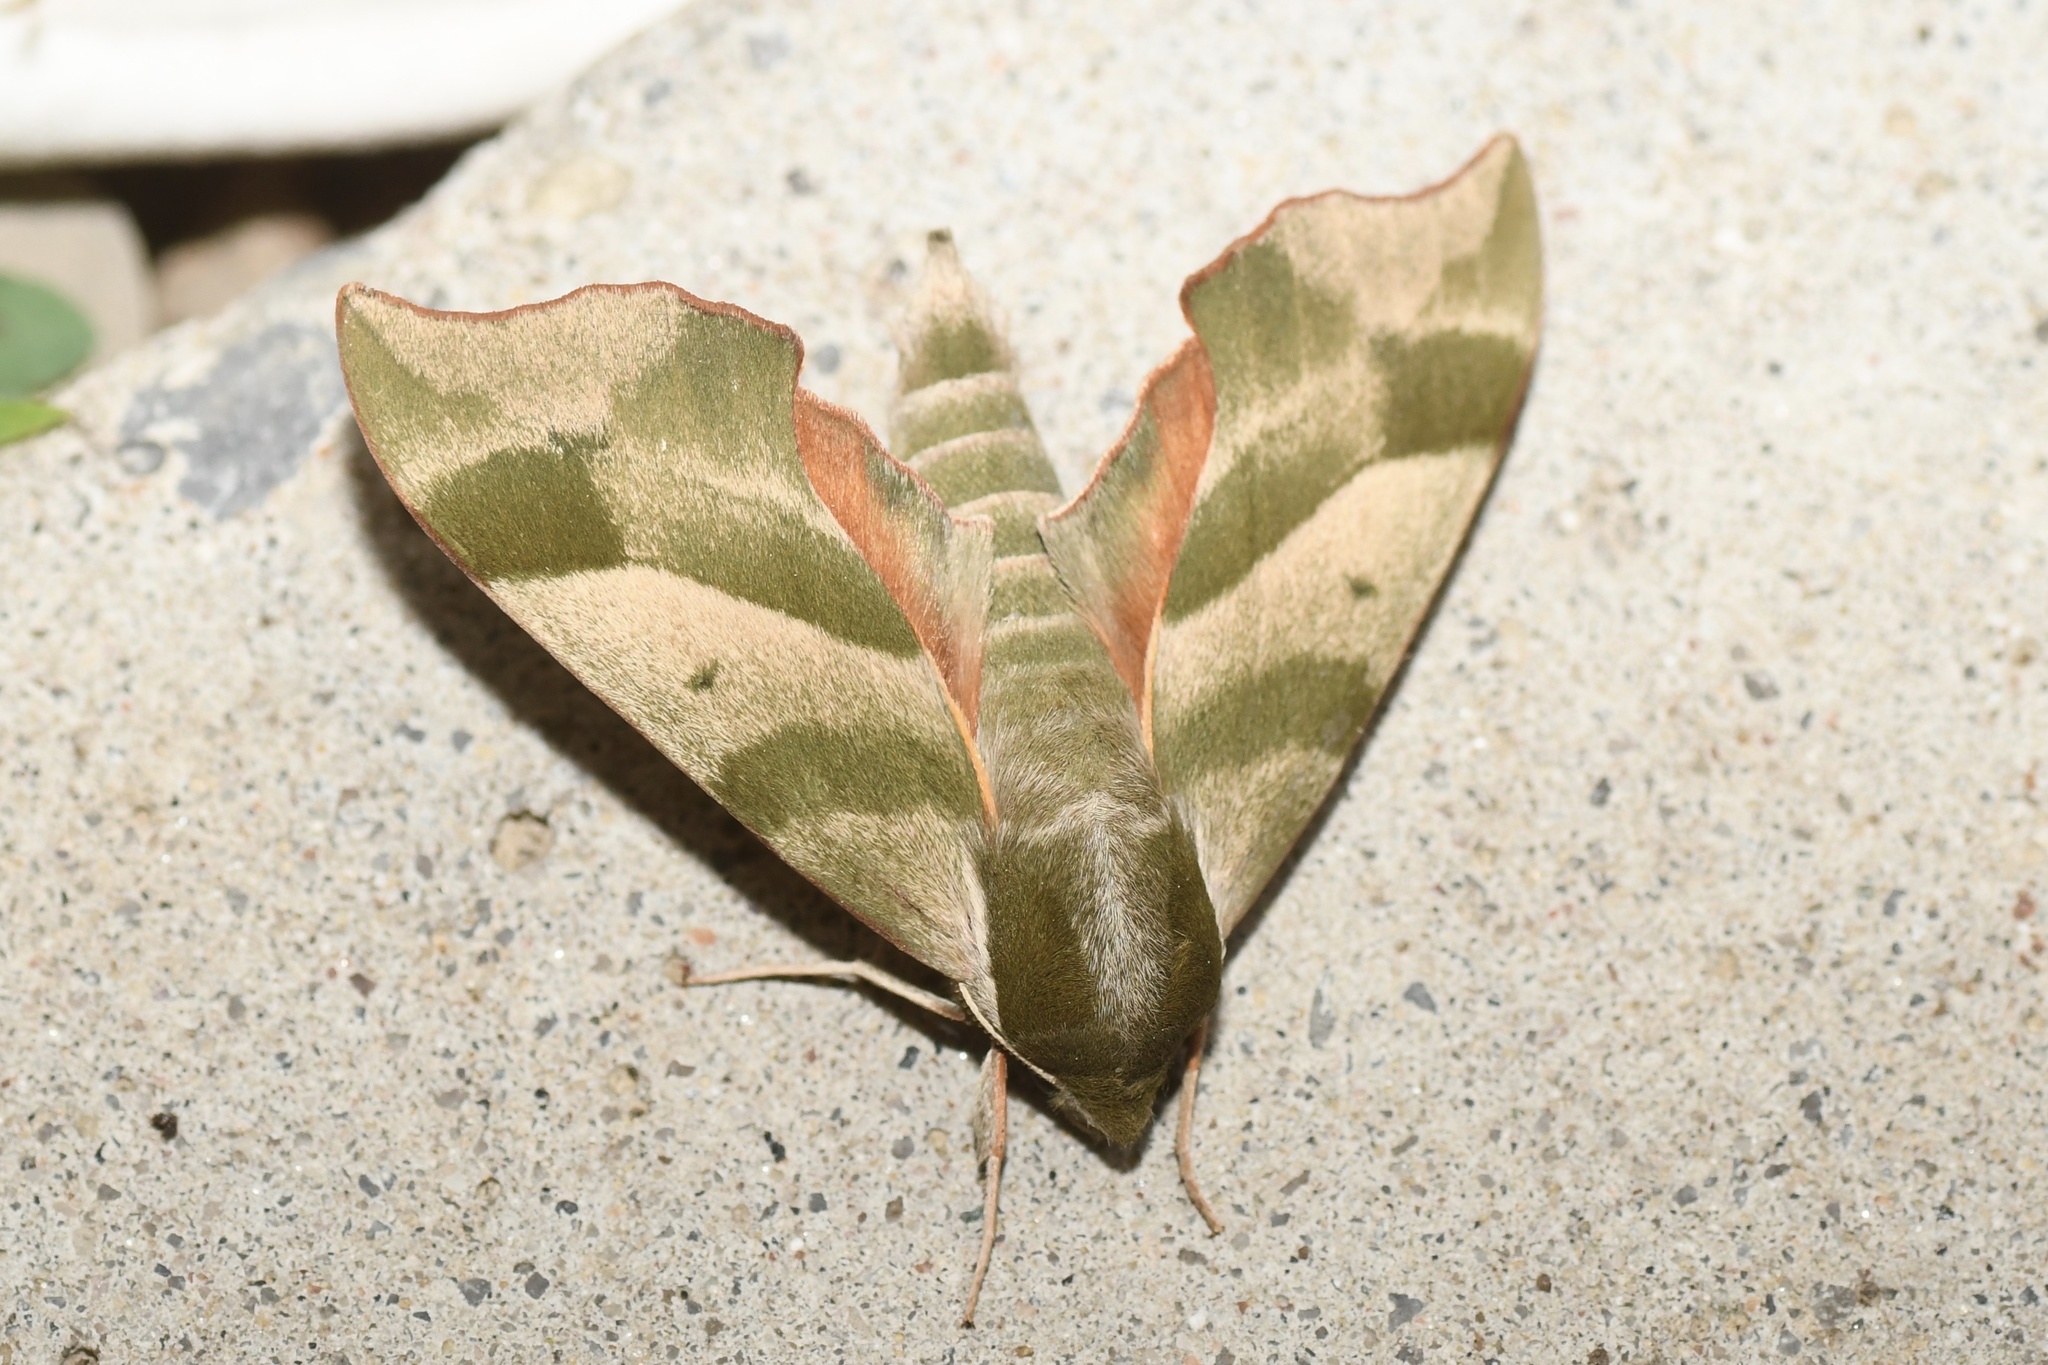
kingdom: Animalia
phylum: Arthropoda
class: Insecta
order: Lepidoptera
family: Sphingidae
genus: Darapsa
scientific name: Darapsa myron
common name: Hog sphinx
